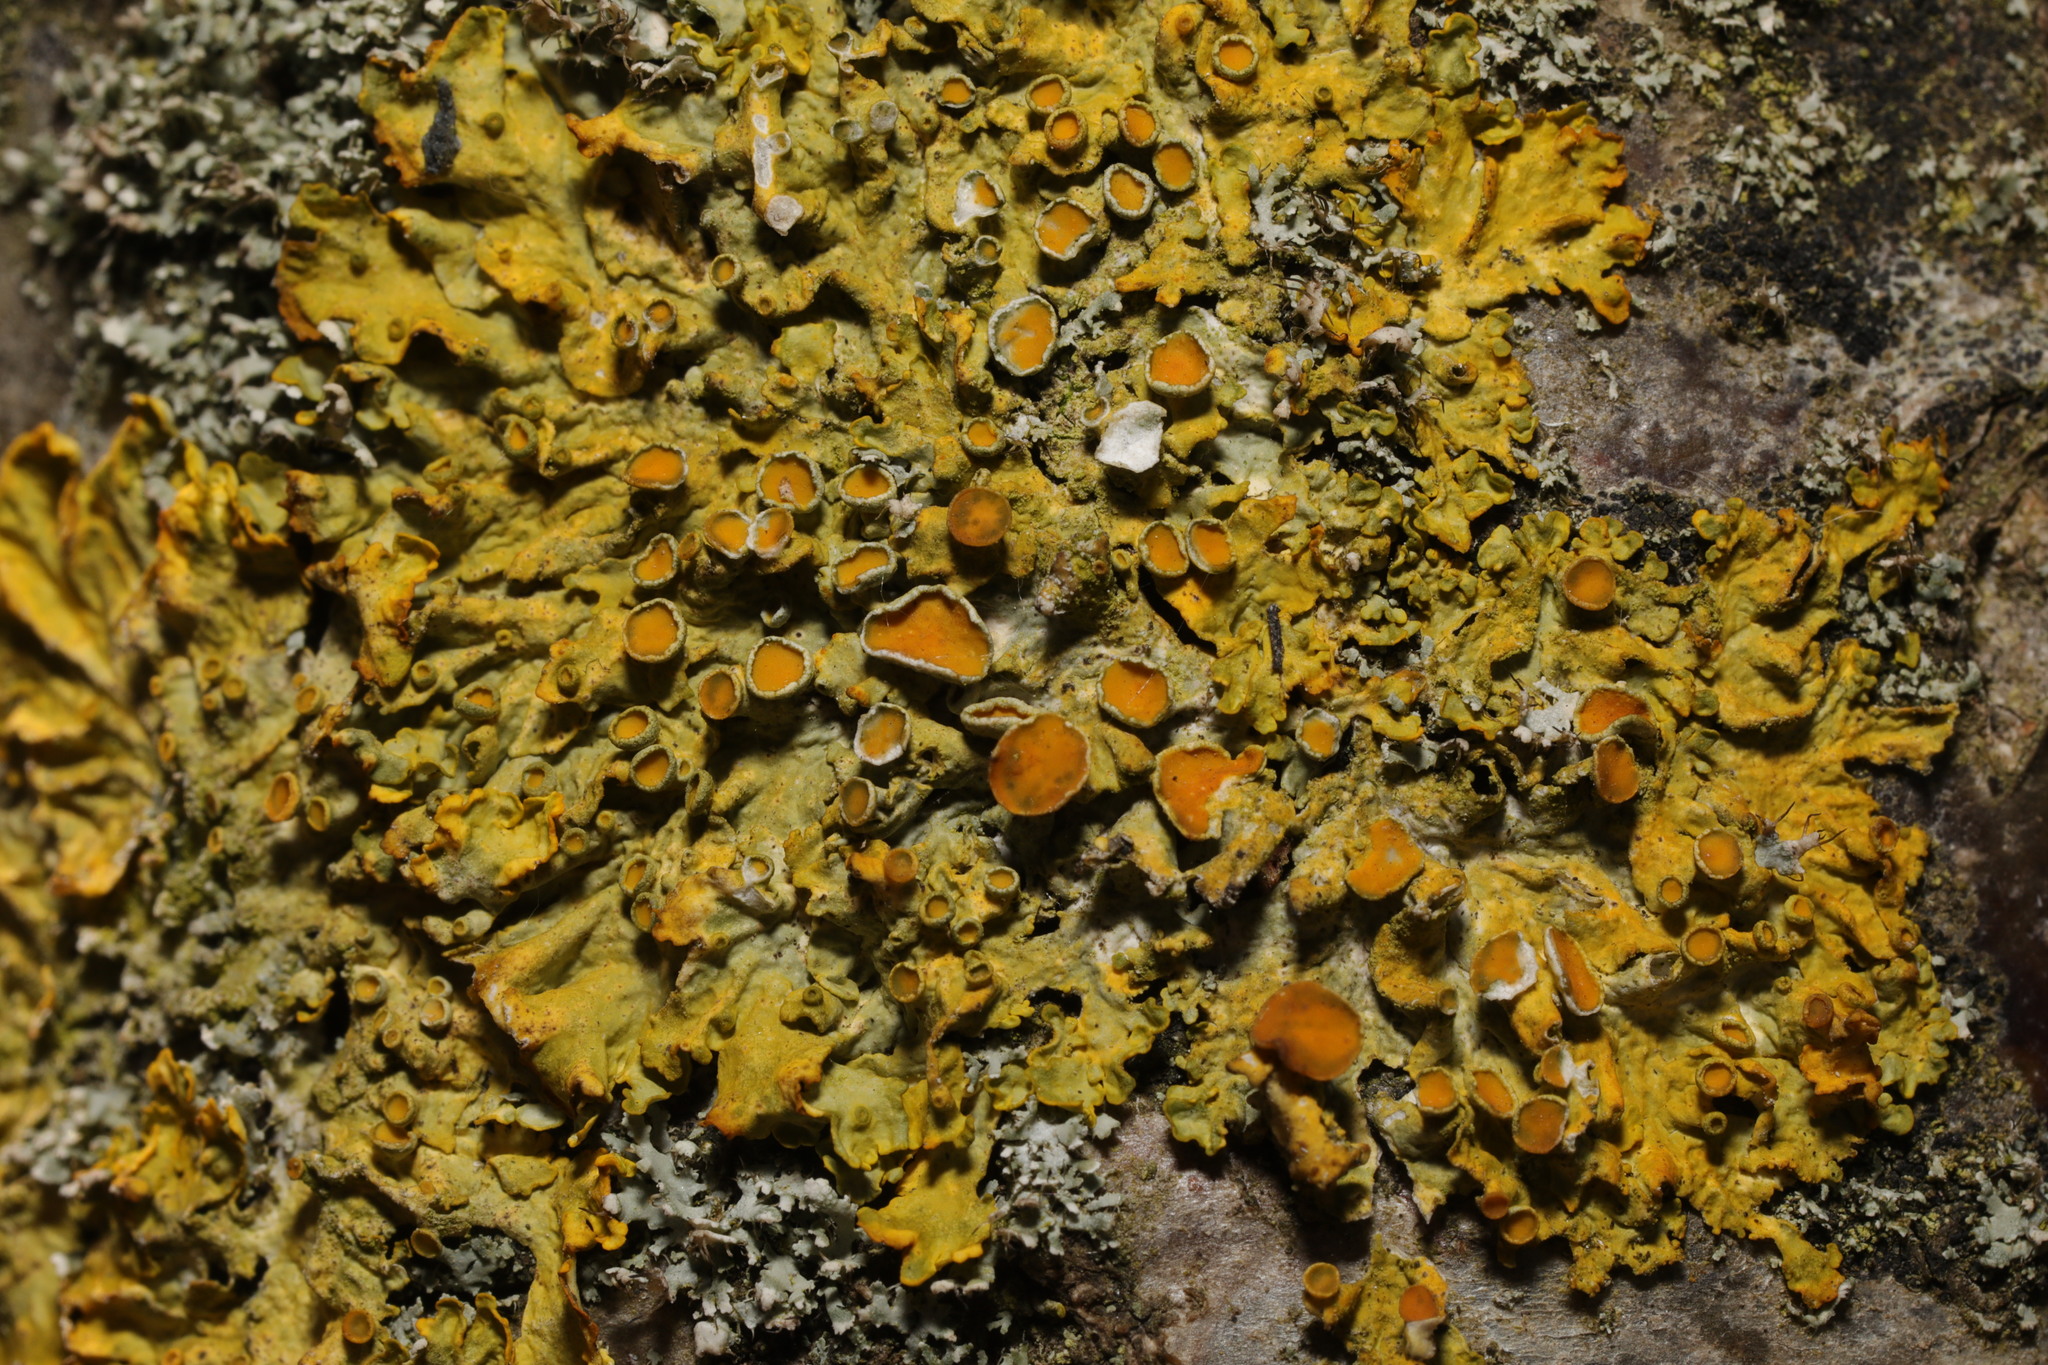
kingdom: Fungi
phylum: Ascomycota
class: Lecanoromycetes
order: Teloschistales
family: Teloschistaceae
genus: Xanthoria
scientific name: Xanthoria parietina
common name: Common orange lichen
